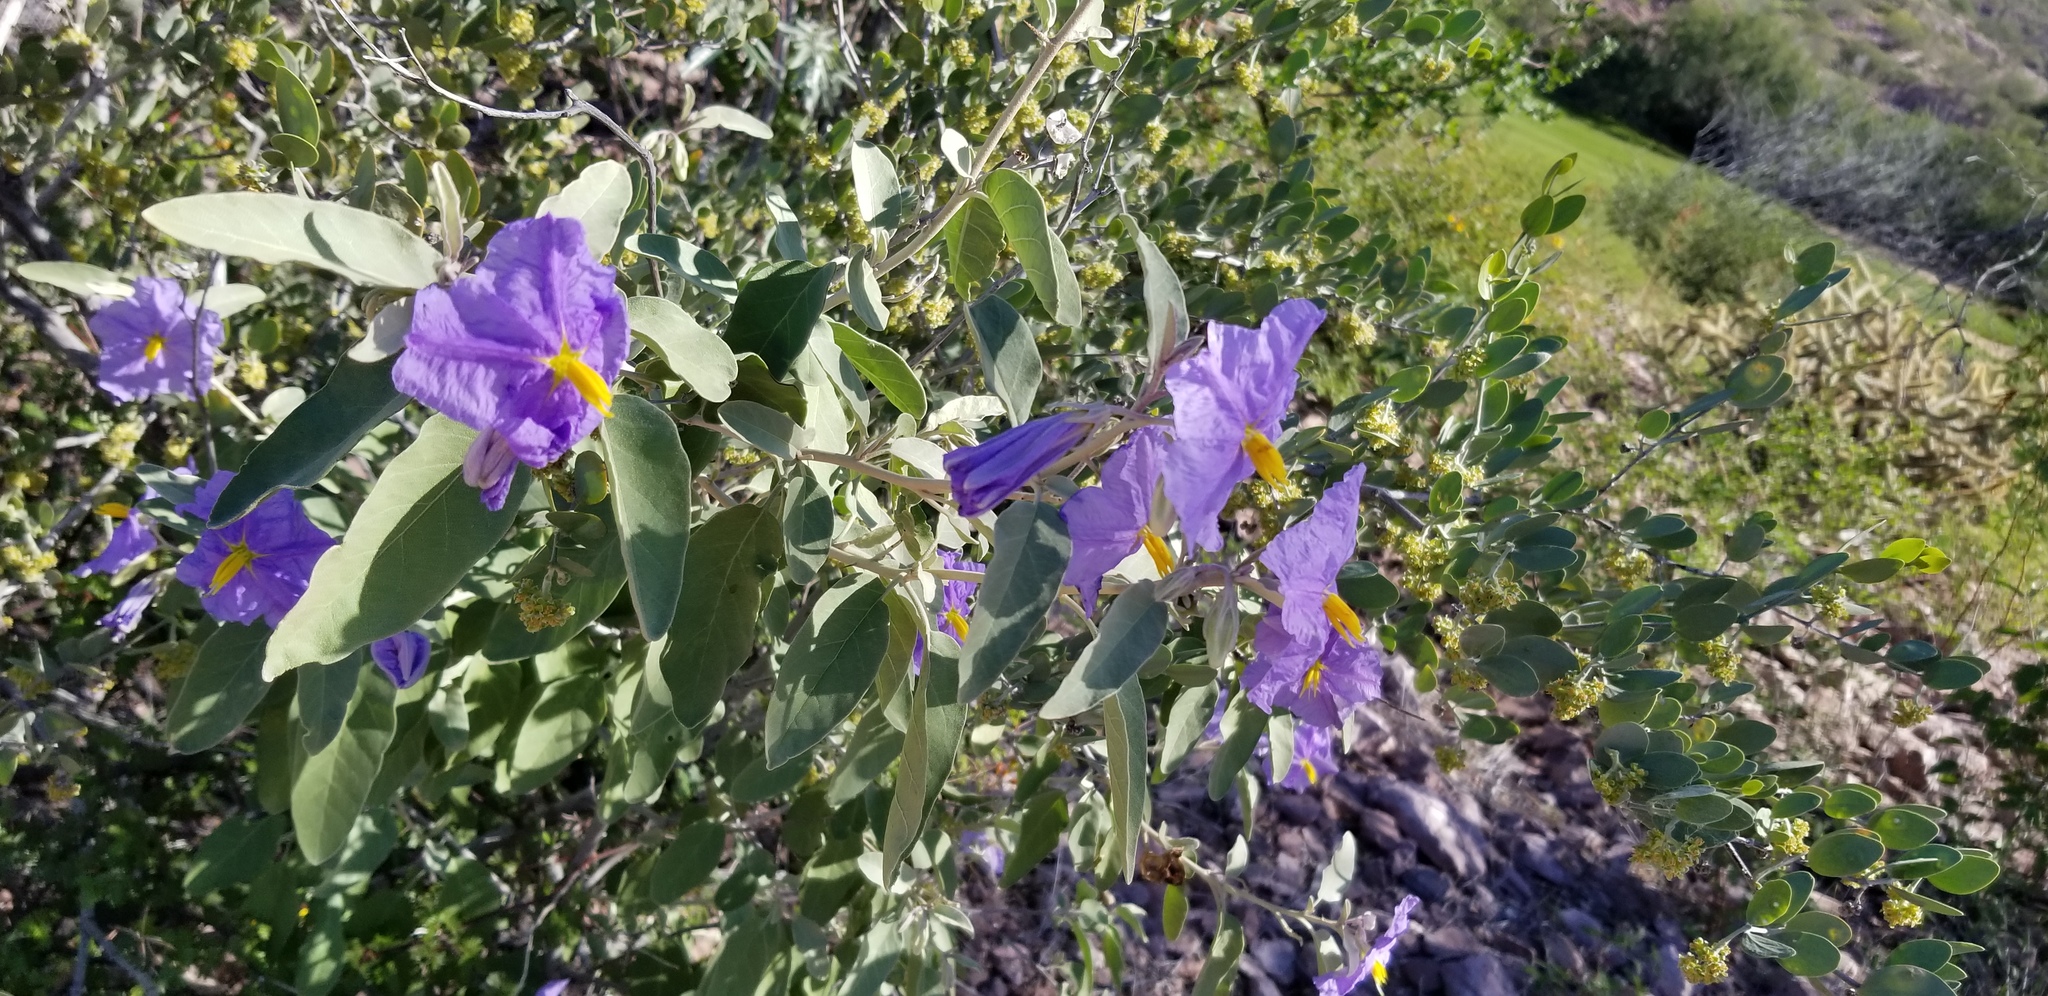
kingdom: Plantae
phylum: Tracheophyta
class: Magnoliopsida
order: Solanales
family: Solanaceae
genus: Solanum
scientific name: Solanum hindsianum
